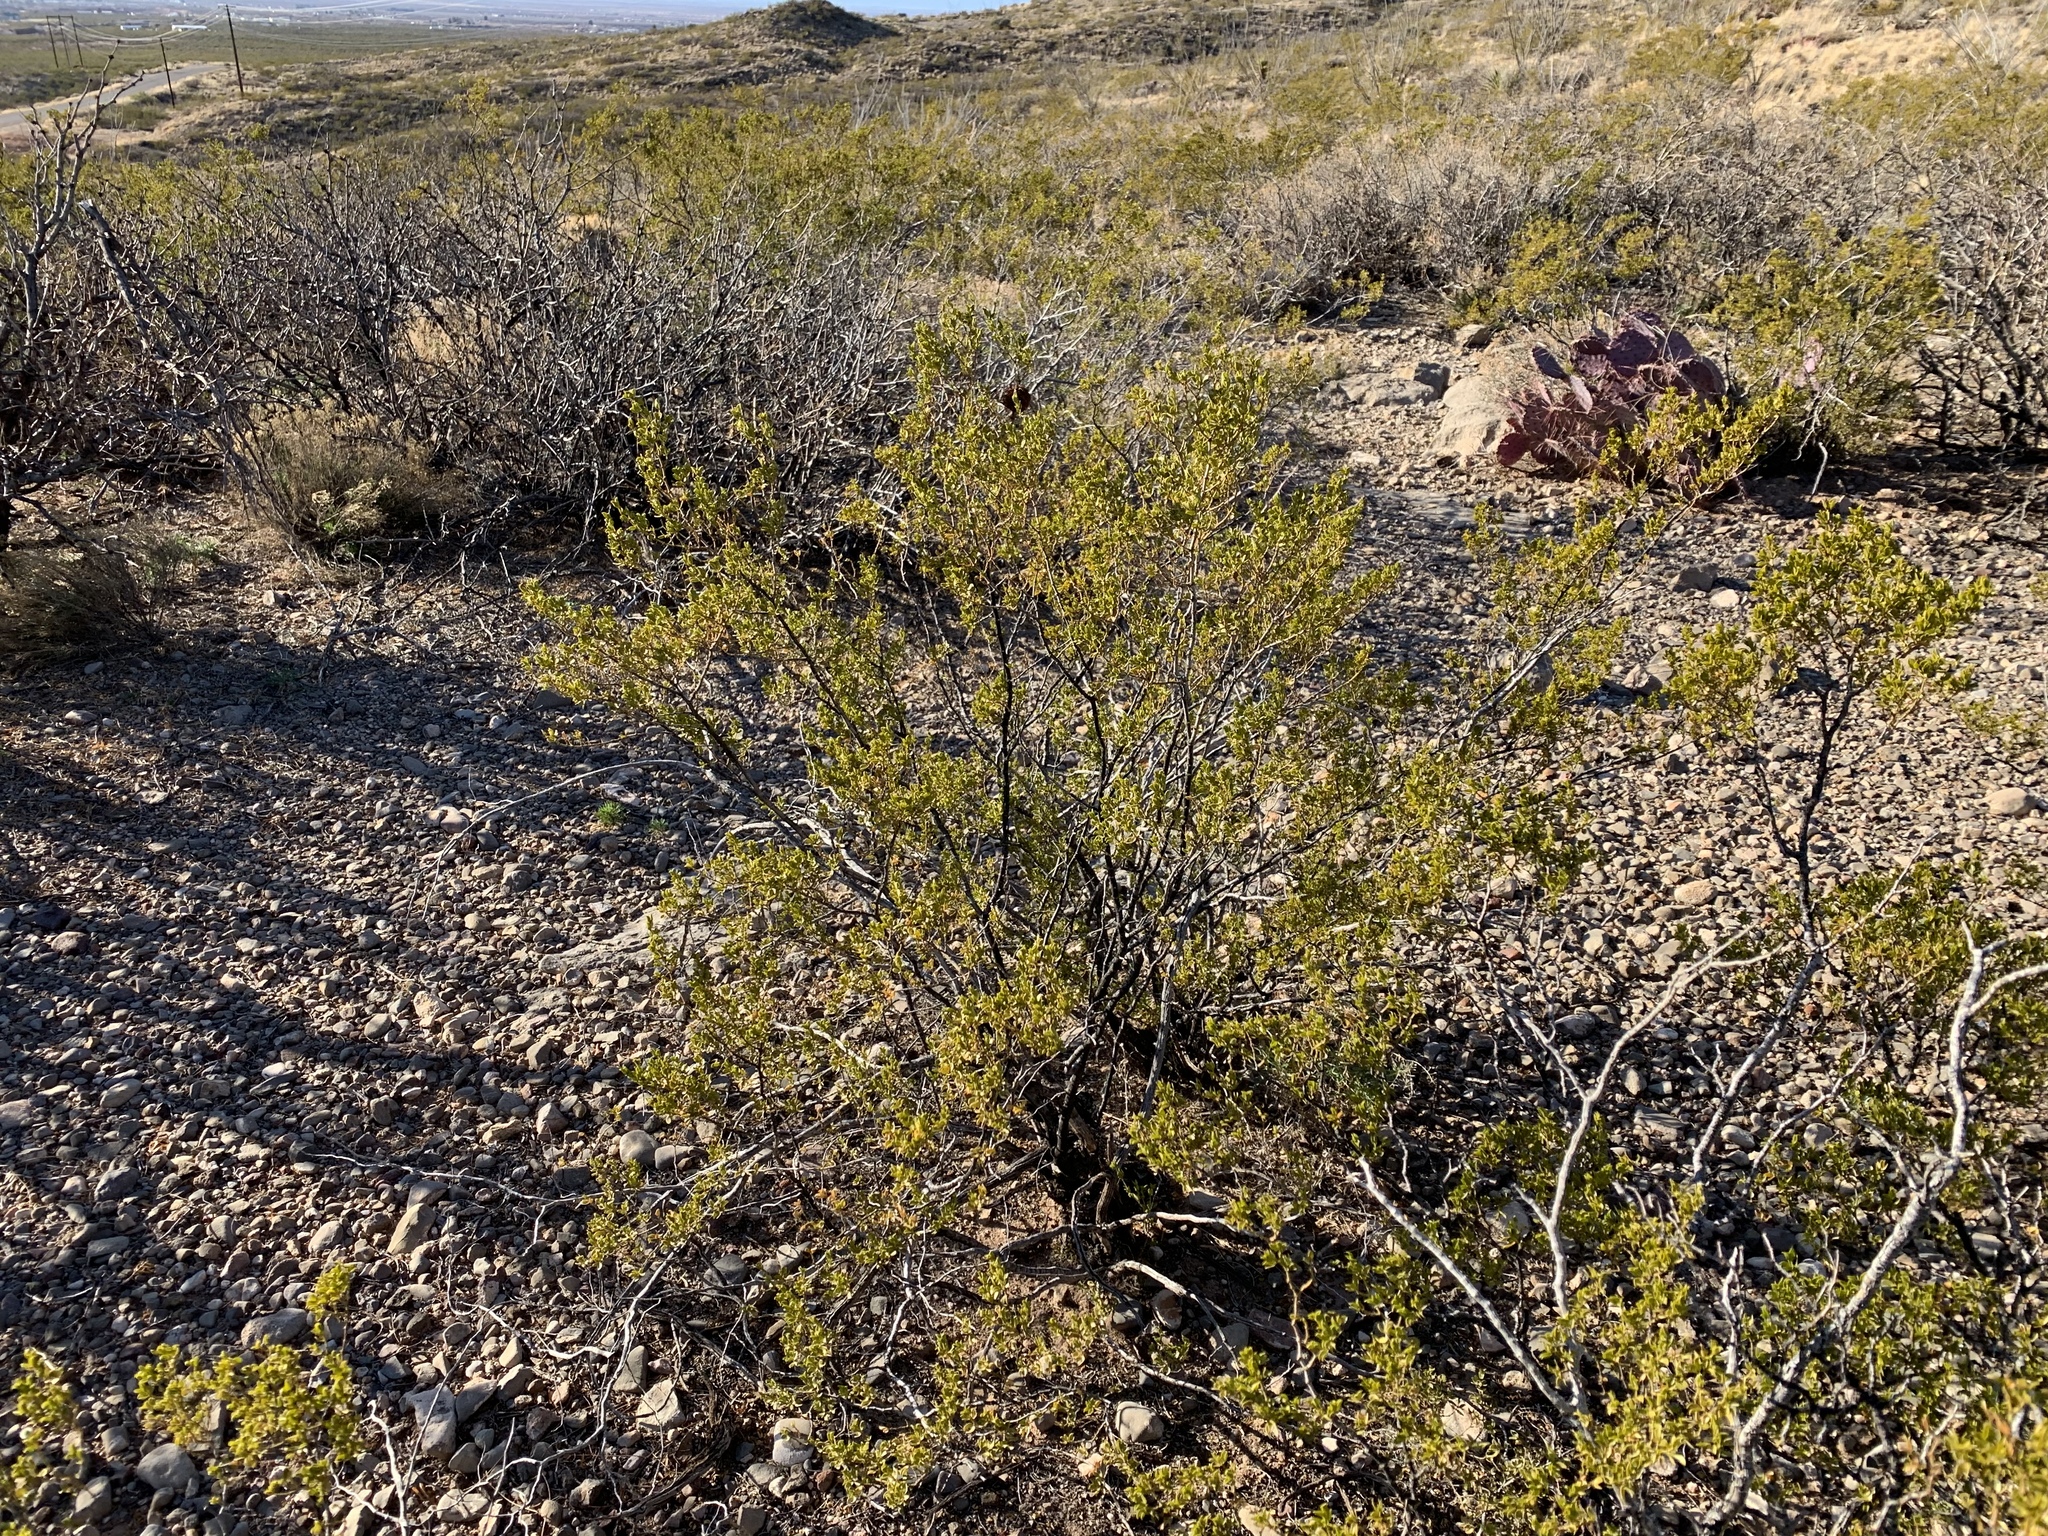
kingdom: Plantae
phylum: Tracheophyta
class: Magnoliopsida
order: Zygophyllales
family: Zygophyllaceae
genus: Larrea
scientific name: Larrea tridentata
